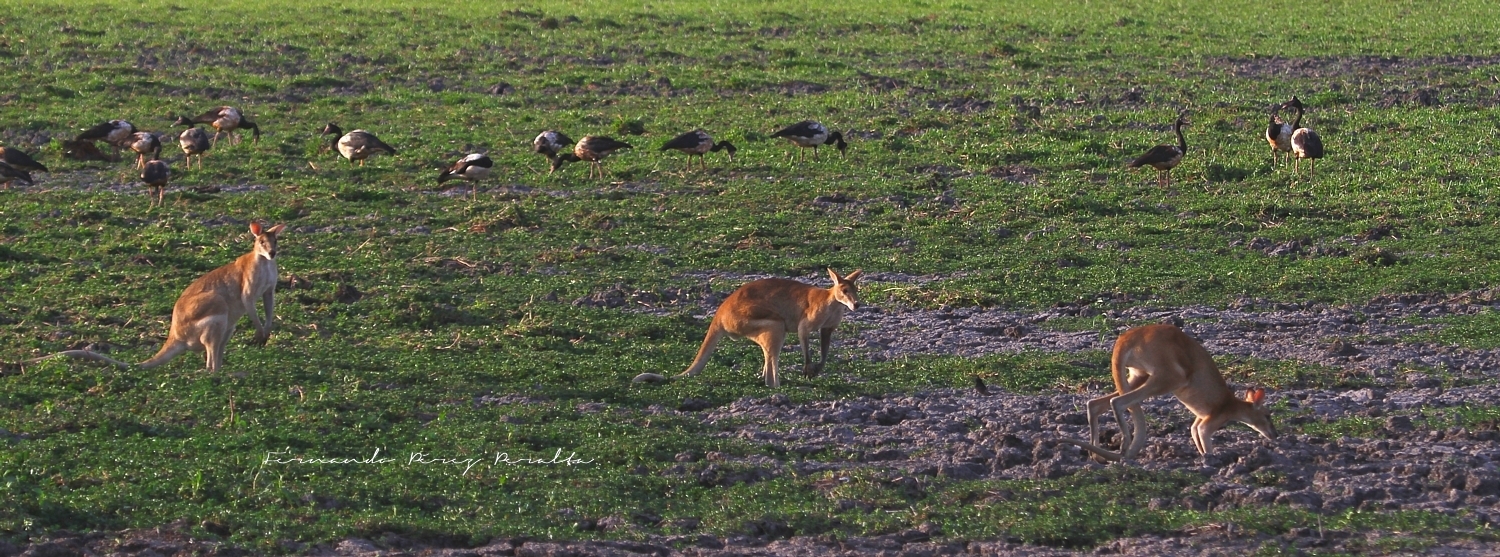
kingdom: Animalia
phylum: Chordata
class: Mammalia
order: Diprotodontia
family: Macropodidae
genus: Macropus
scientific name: Macropus agilis
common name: Agile wallaby
